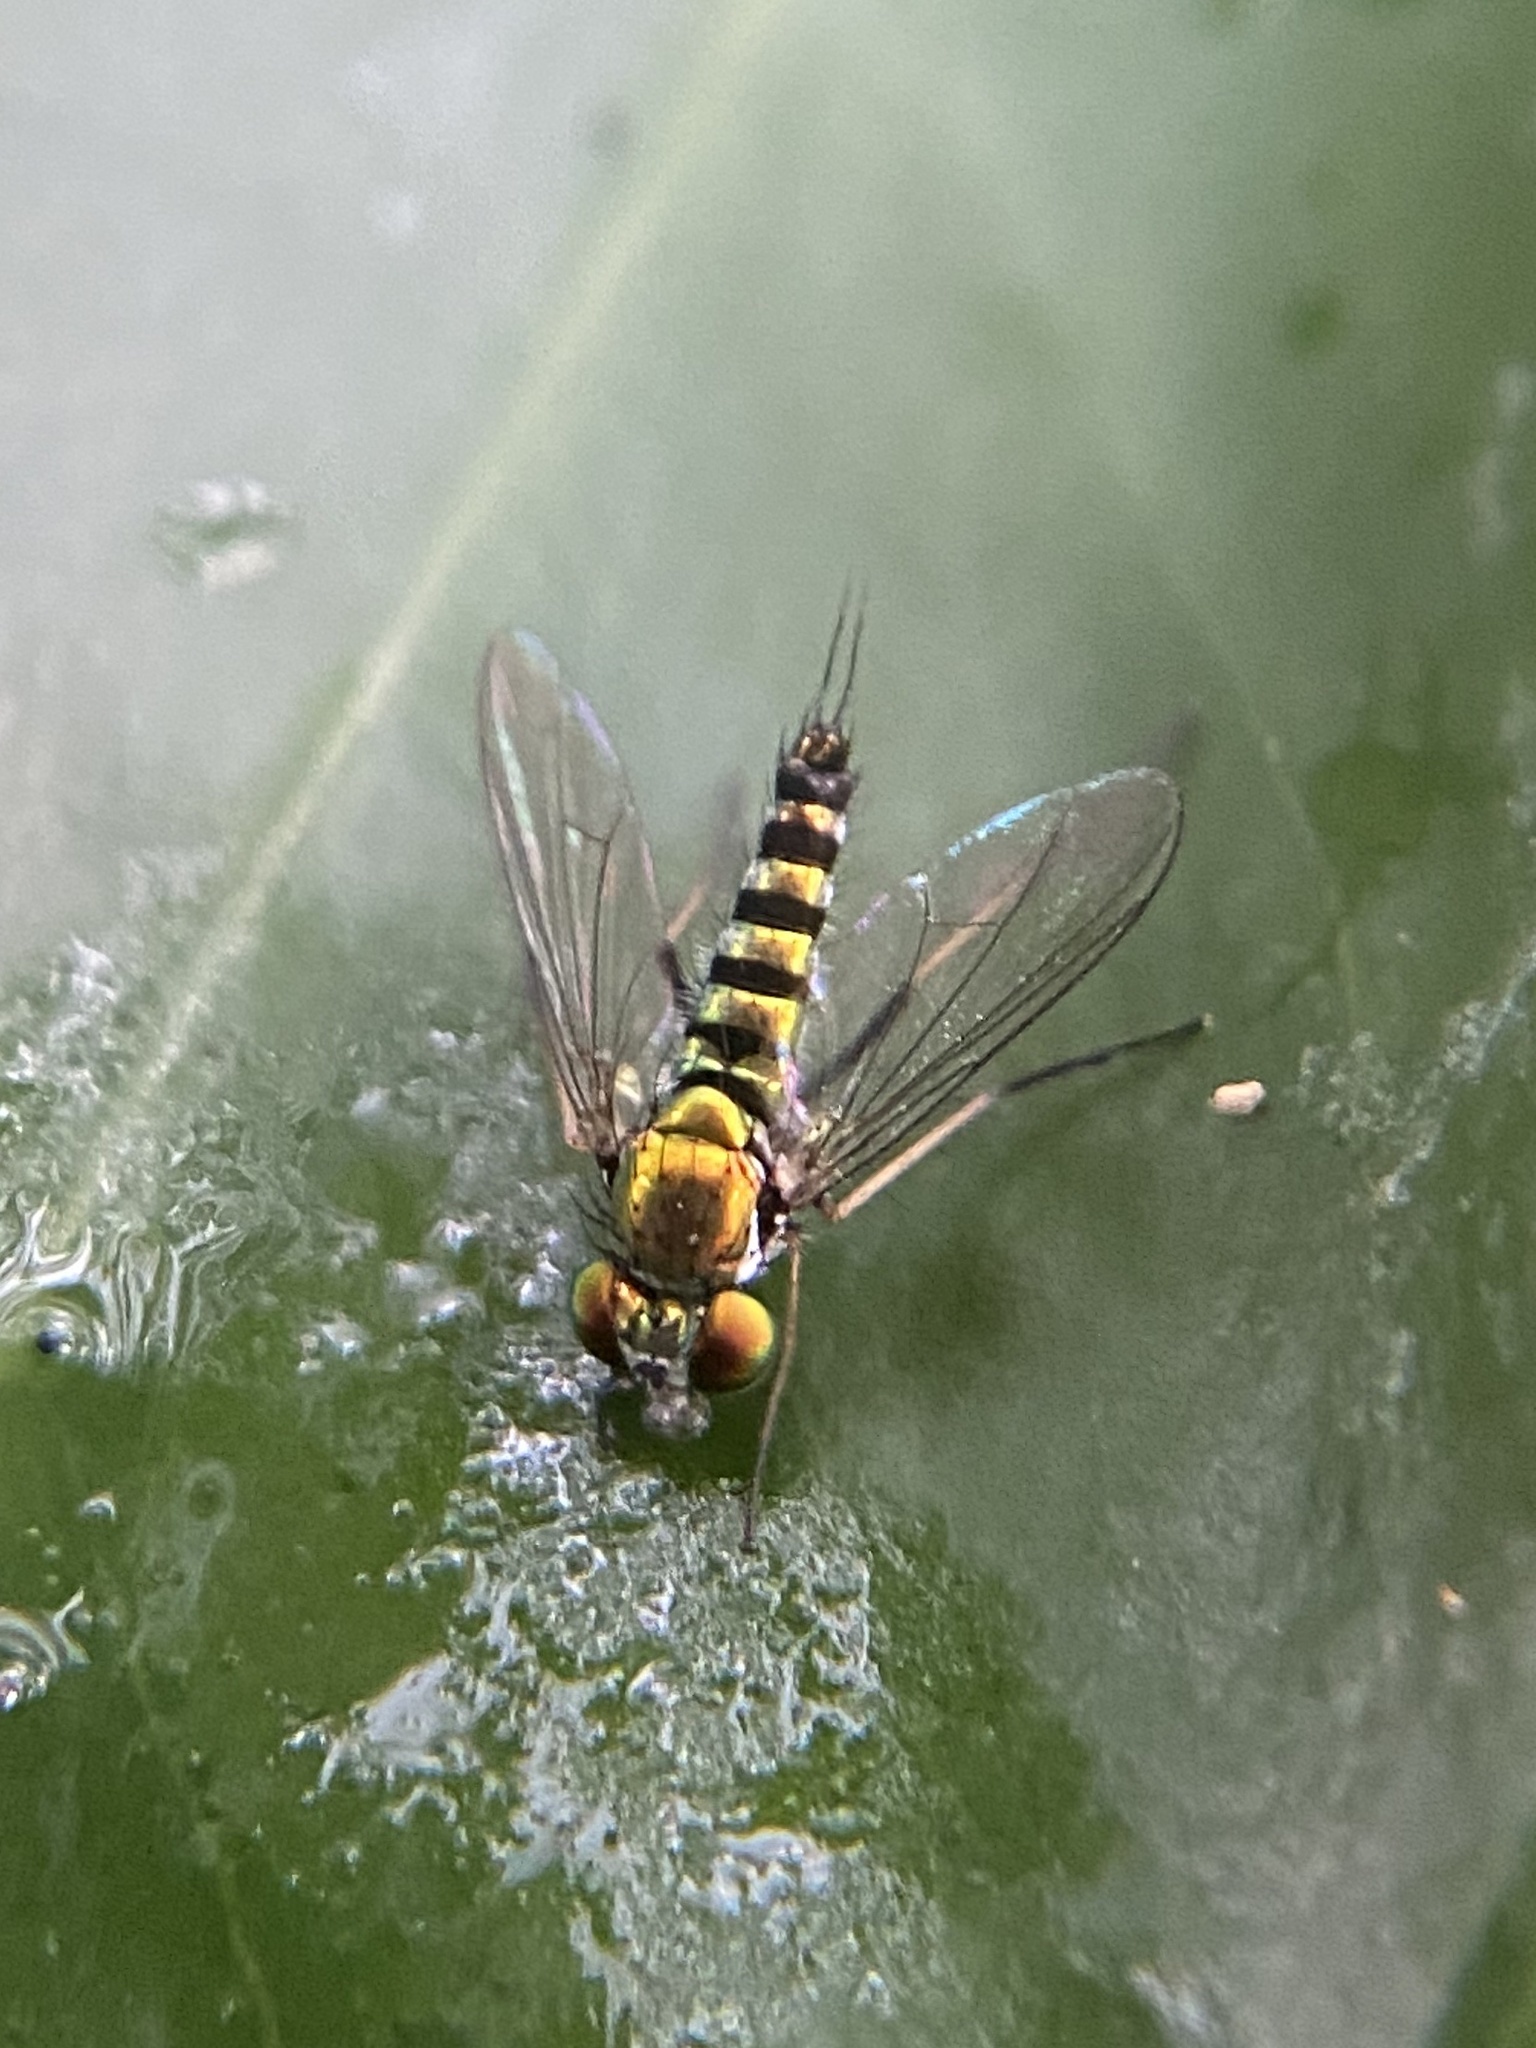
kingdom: Animalia
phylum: Arthropoda
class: Insecta
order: Diptera
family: Dolichopodidae
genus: Condylostylus
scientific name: Condylostylus graenicheri
